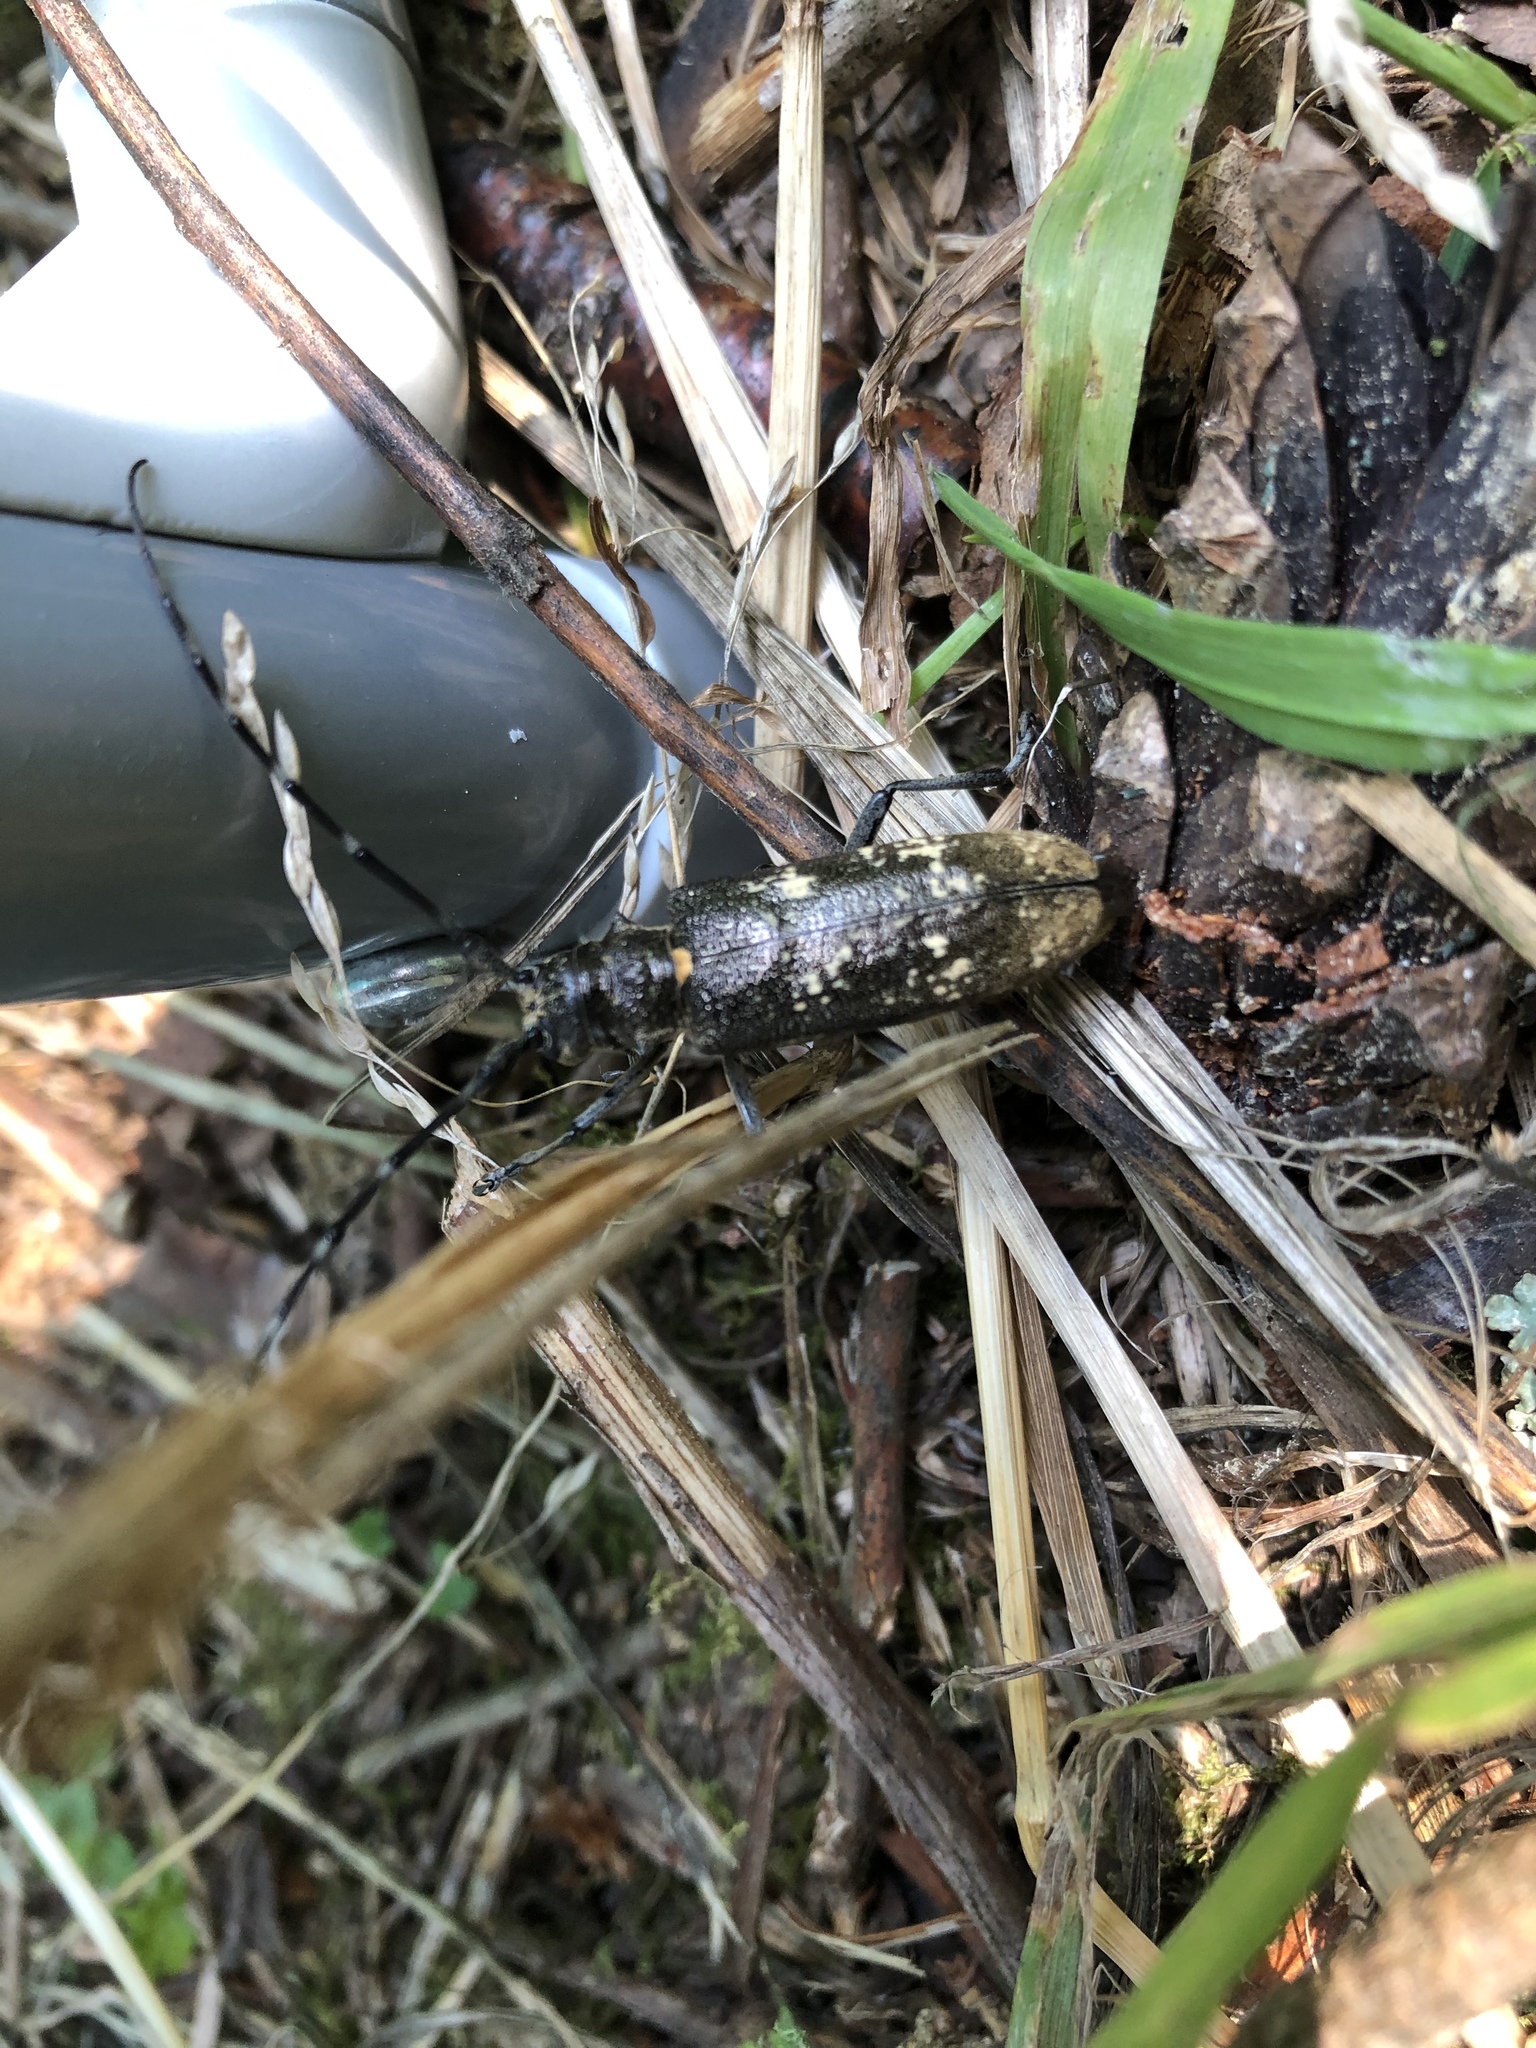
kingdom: Animalia
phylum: Arthropoda
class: Insecta
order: Coleoptera
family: Cerambycidae
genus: Monochamus
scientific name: Monochamus urussovii
